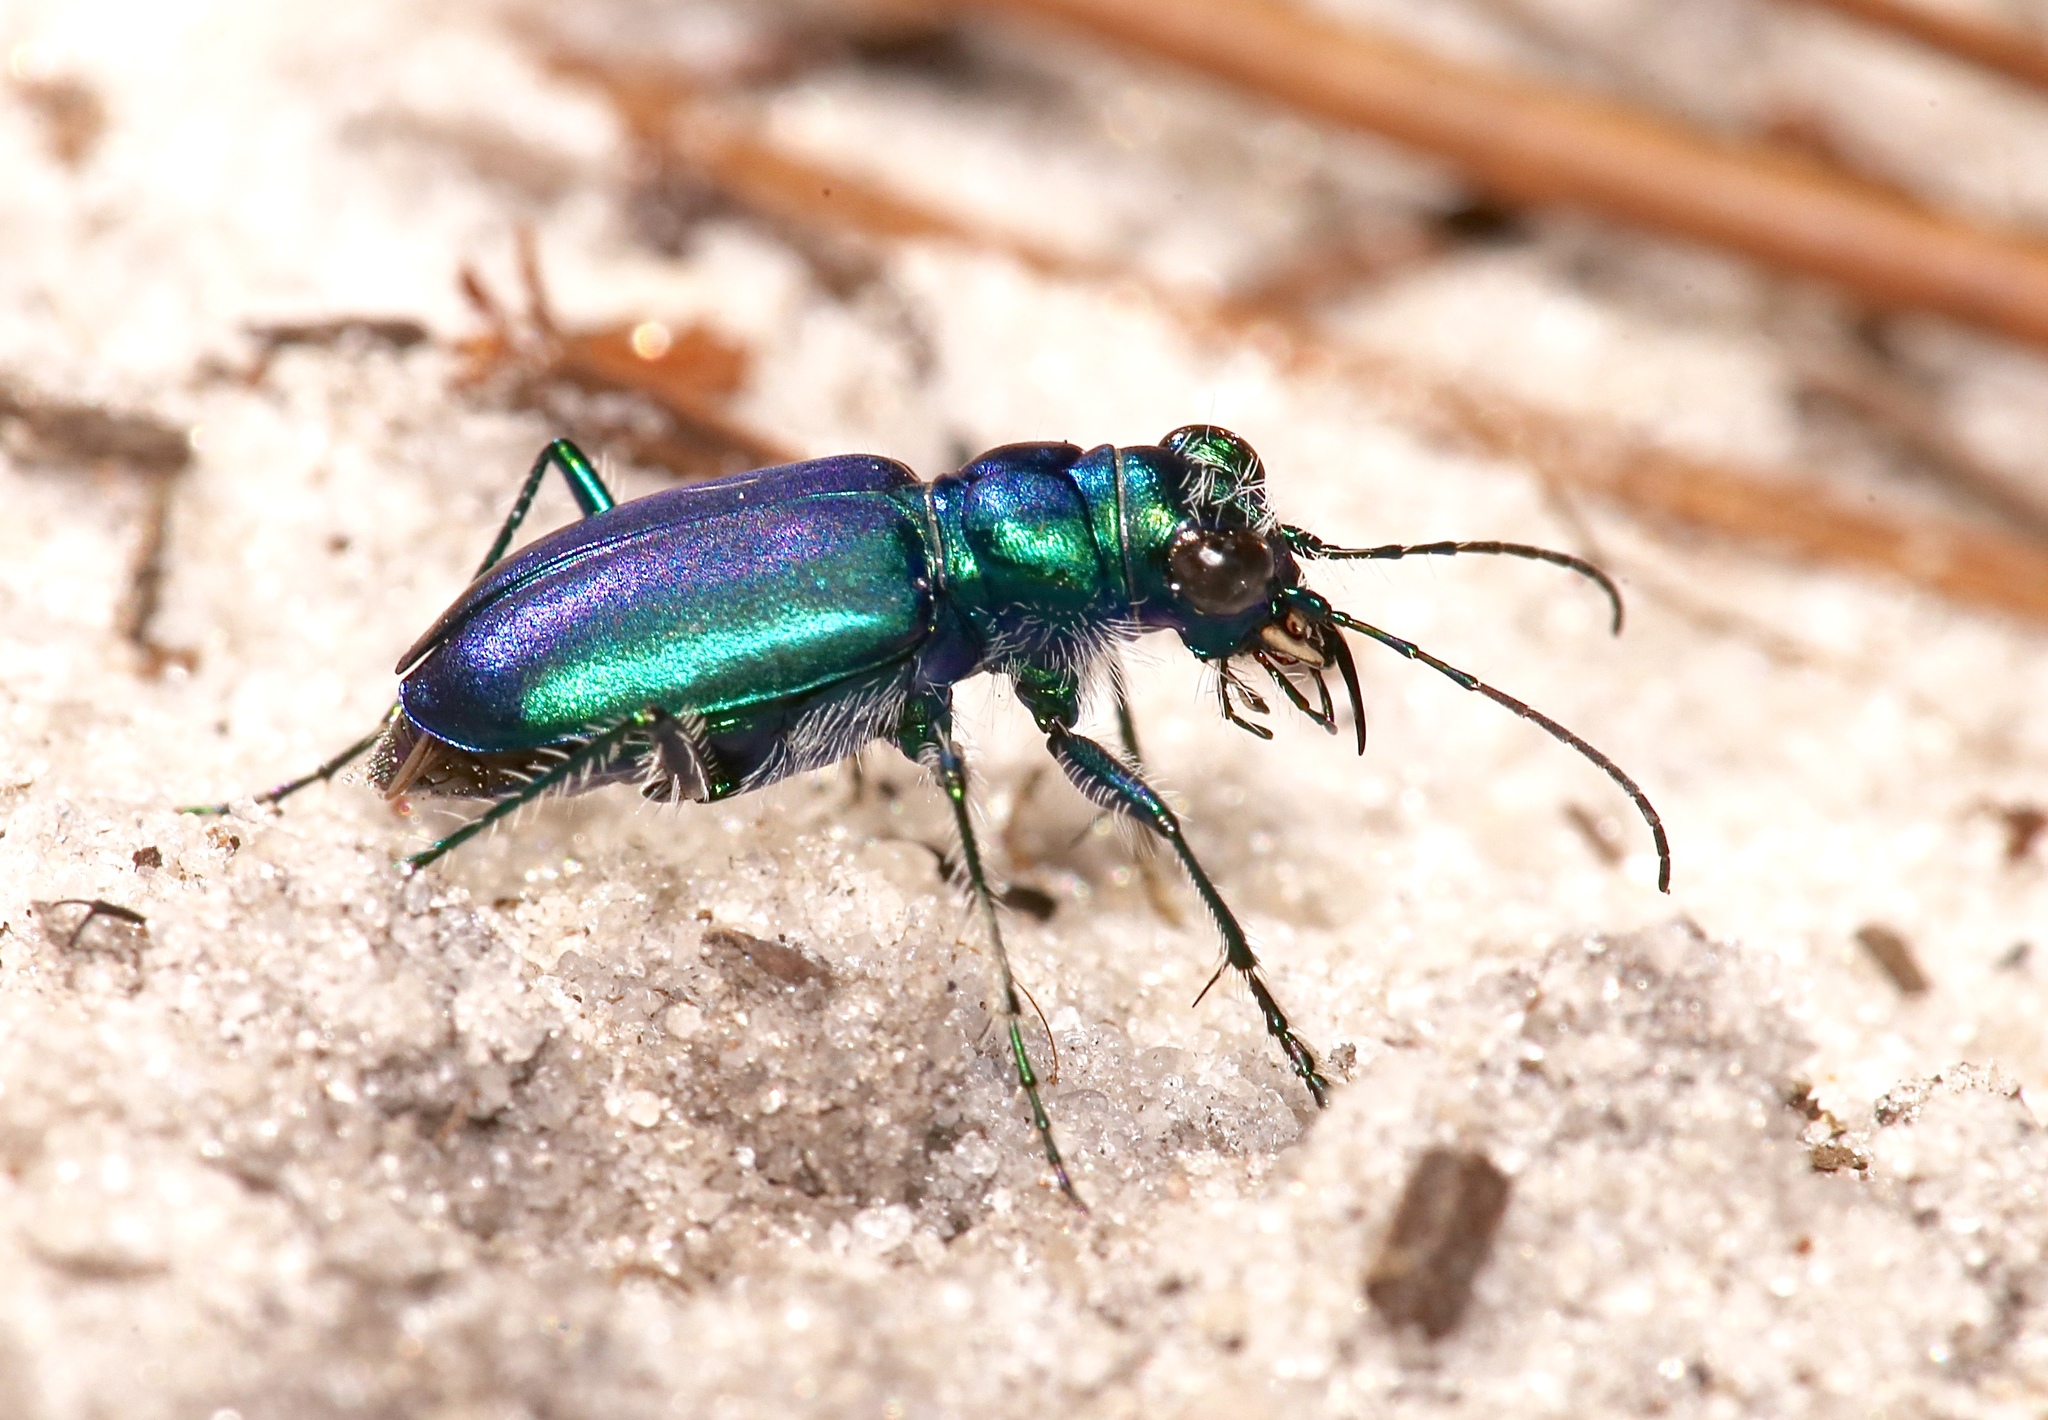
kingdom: Animalia
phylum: Arthropoda
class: Insecta
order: Coleoptera
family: Carabidae
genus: Cicindela
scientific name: Cicindela scutellaris
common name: Festive tiger beetle
